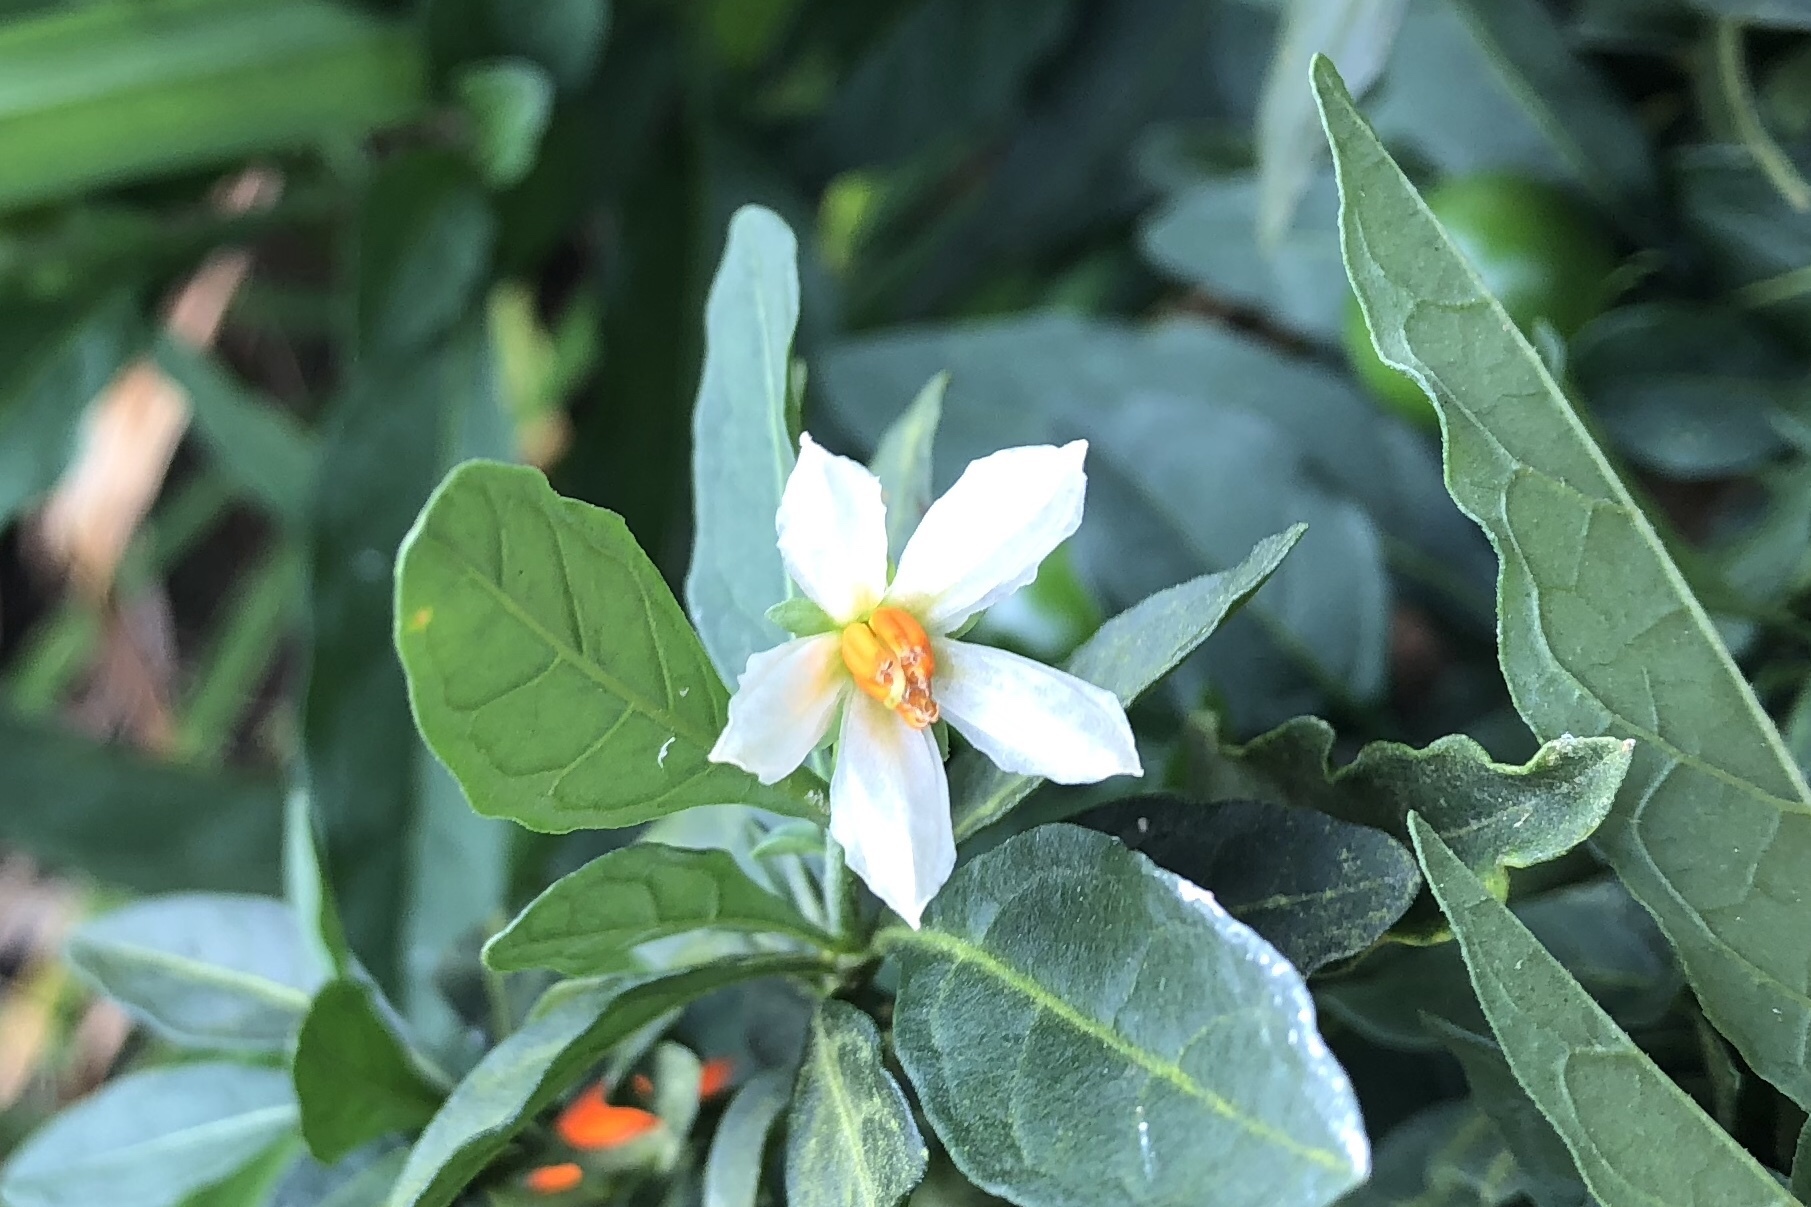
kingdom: Plantae
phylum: Tracheophyta
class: Magnoliopsida
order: Solanales
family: Solanaceae
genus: Solanum
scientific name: Solanum pseudocapsicum
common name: Jerusalem cherry
